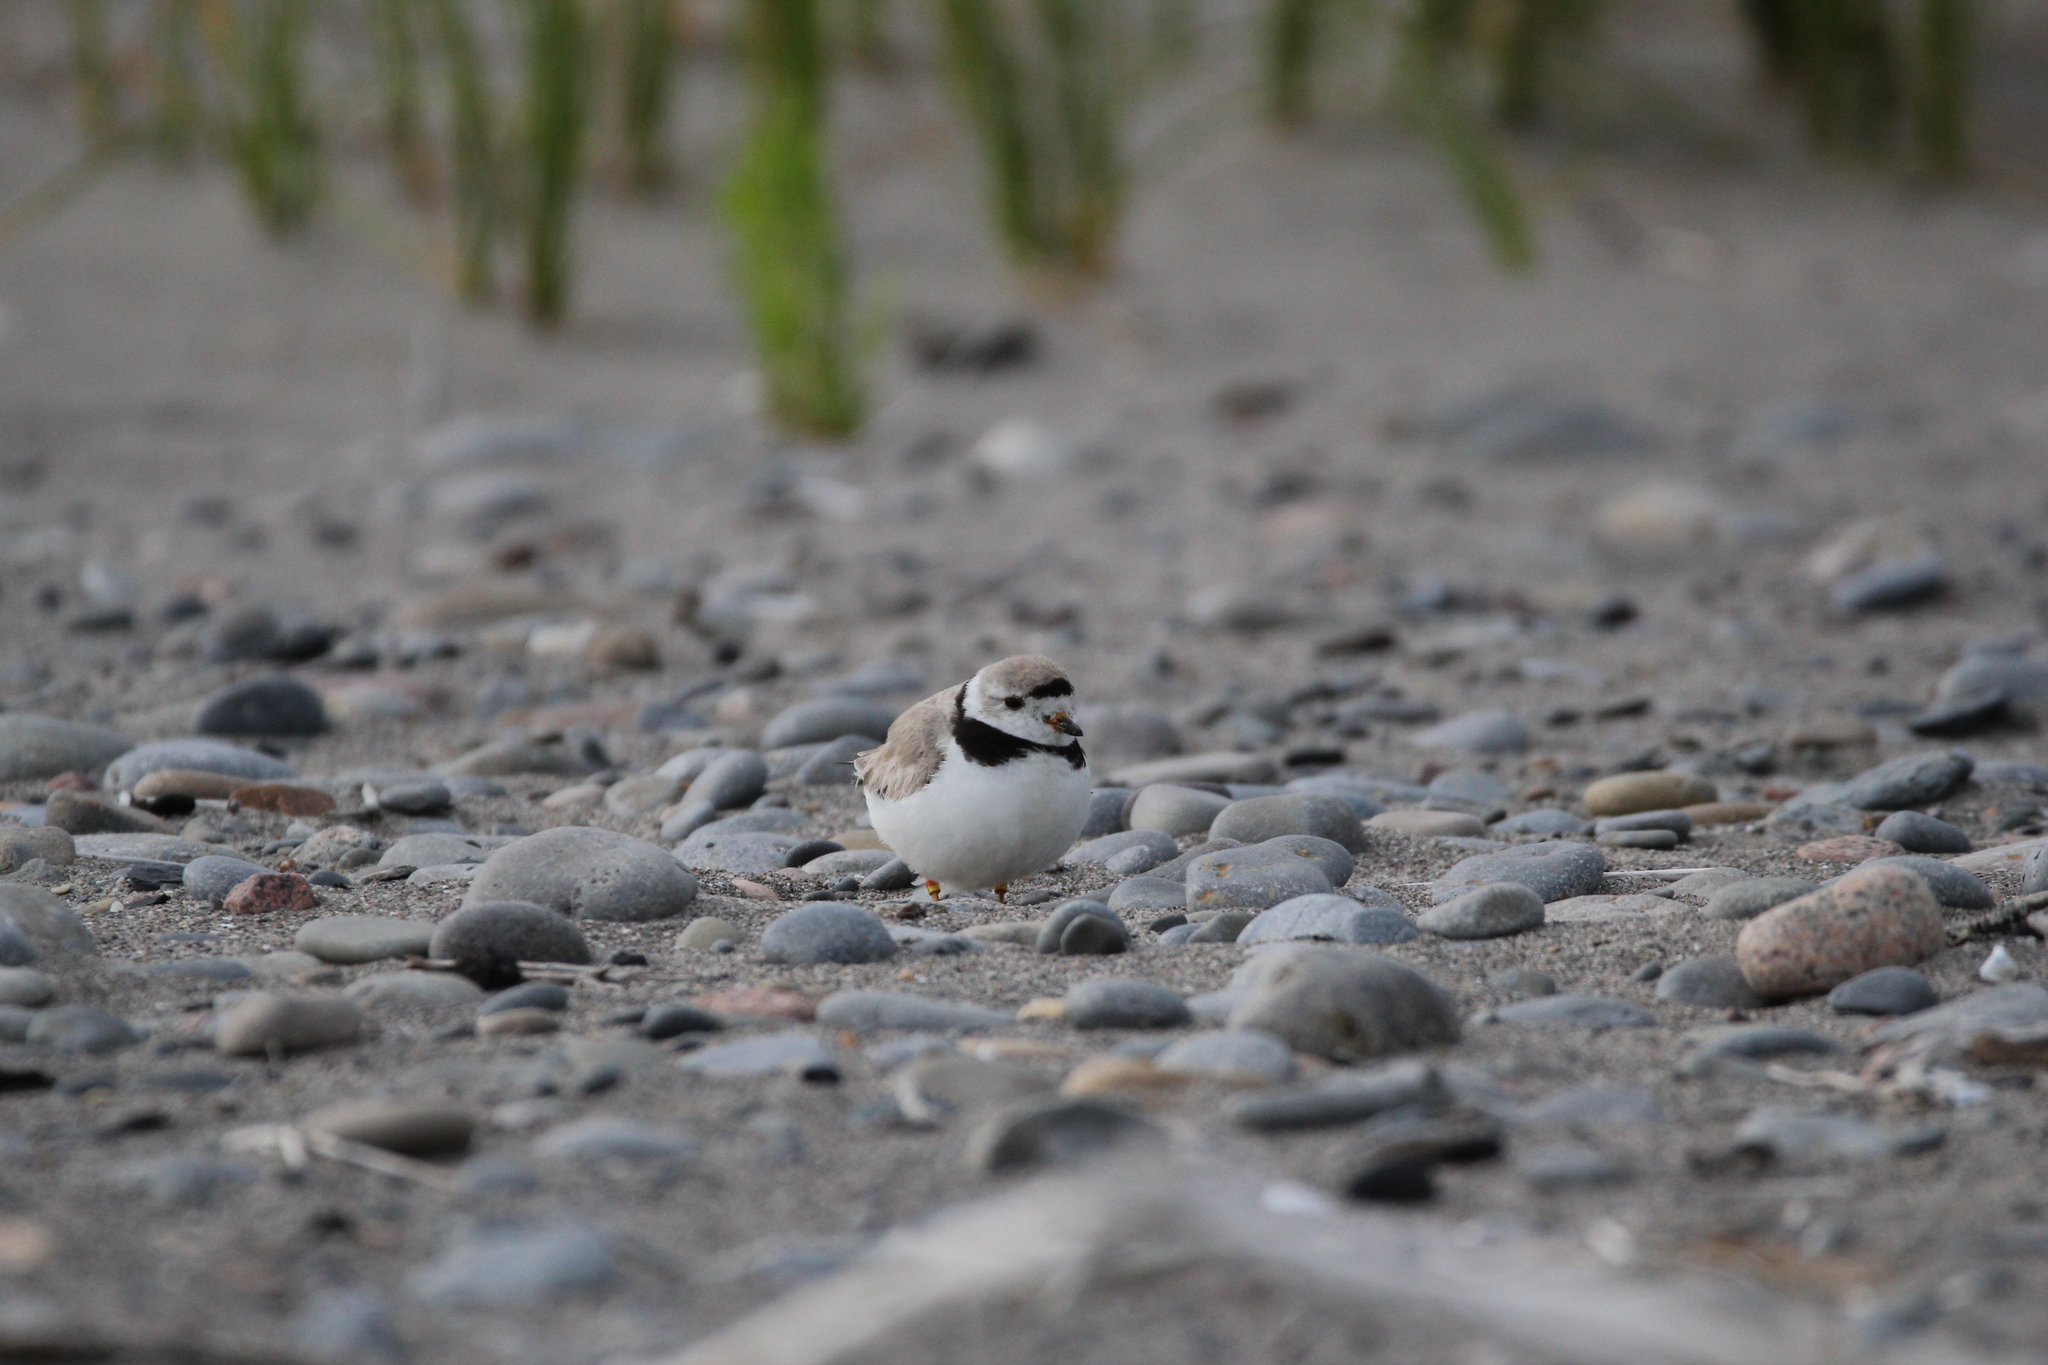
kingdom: Animalia
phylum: Chordata
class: Aves
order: Charadriiformes
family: Charadriidae
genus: Charadrius
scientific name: Charadrius melodus
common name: Piping plover
